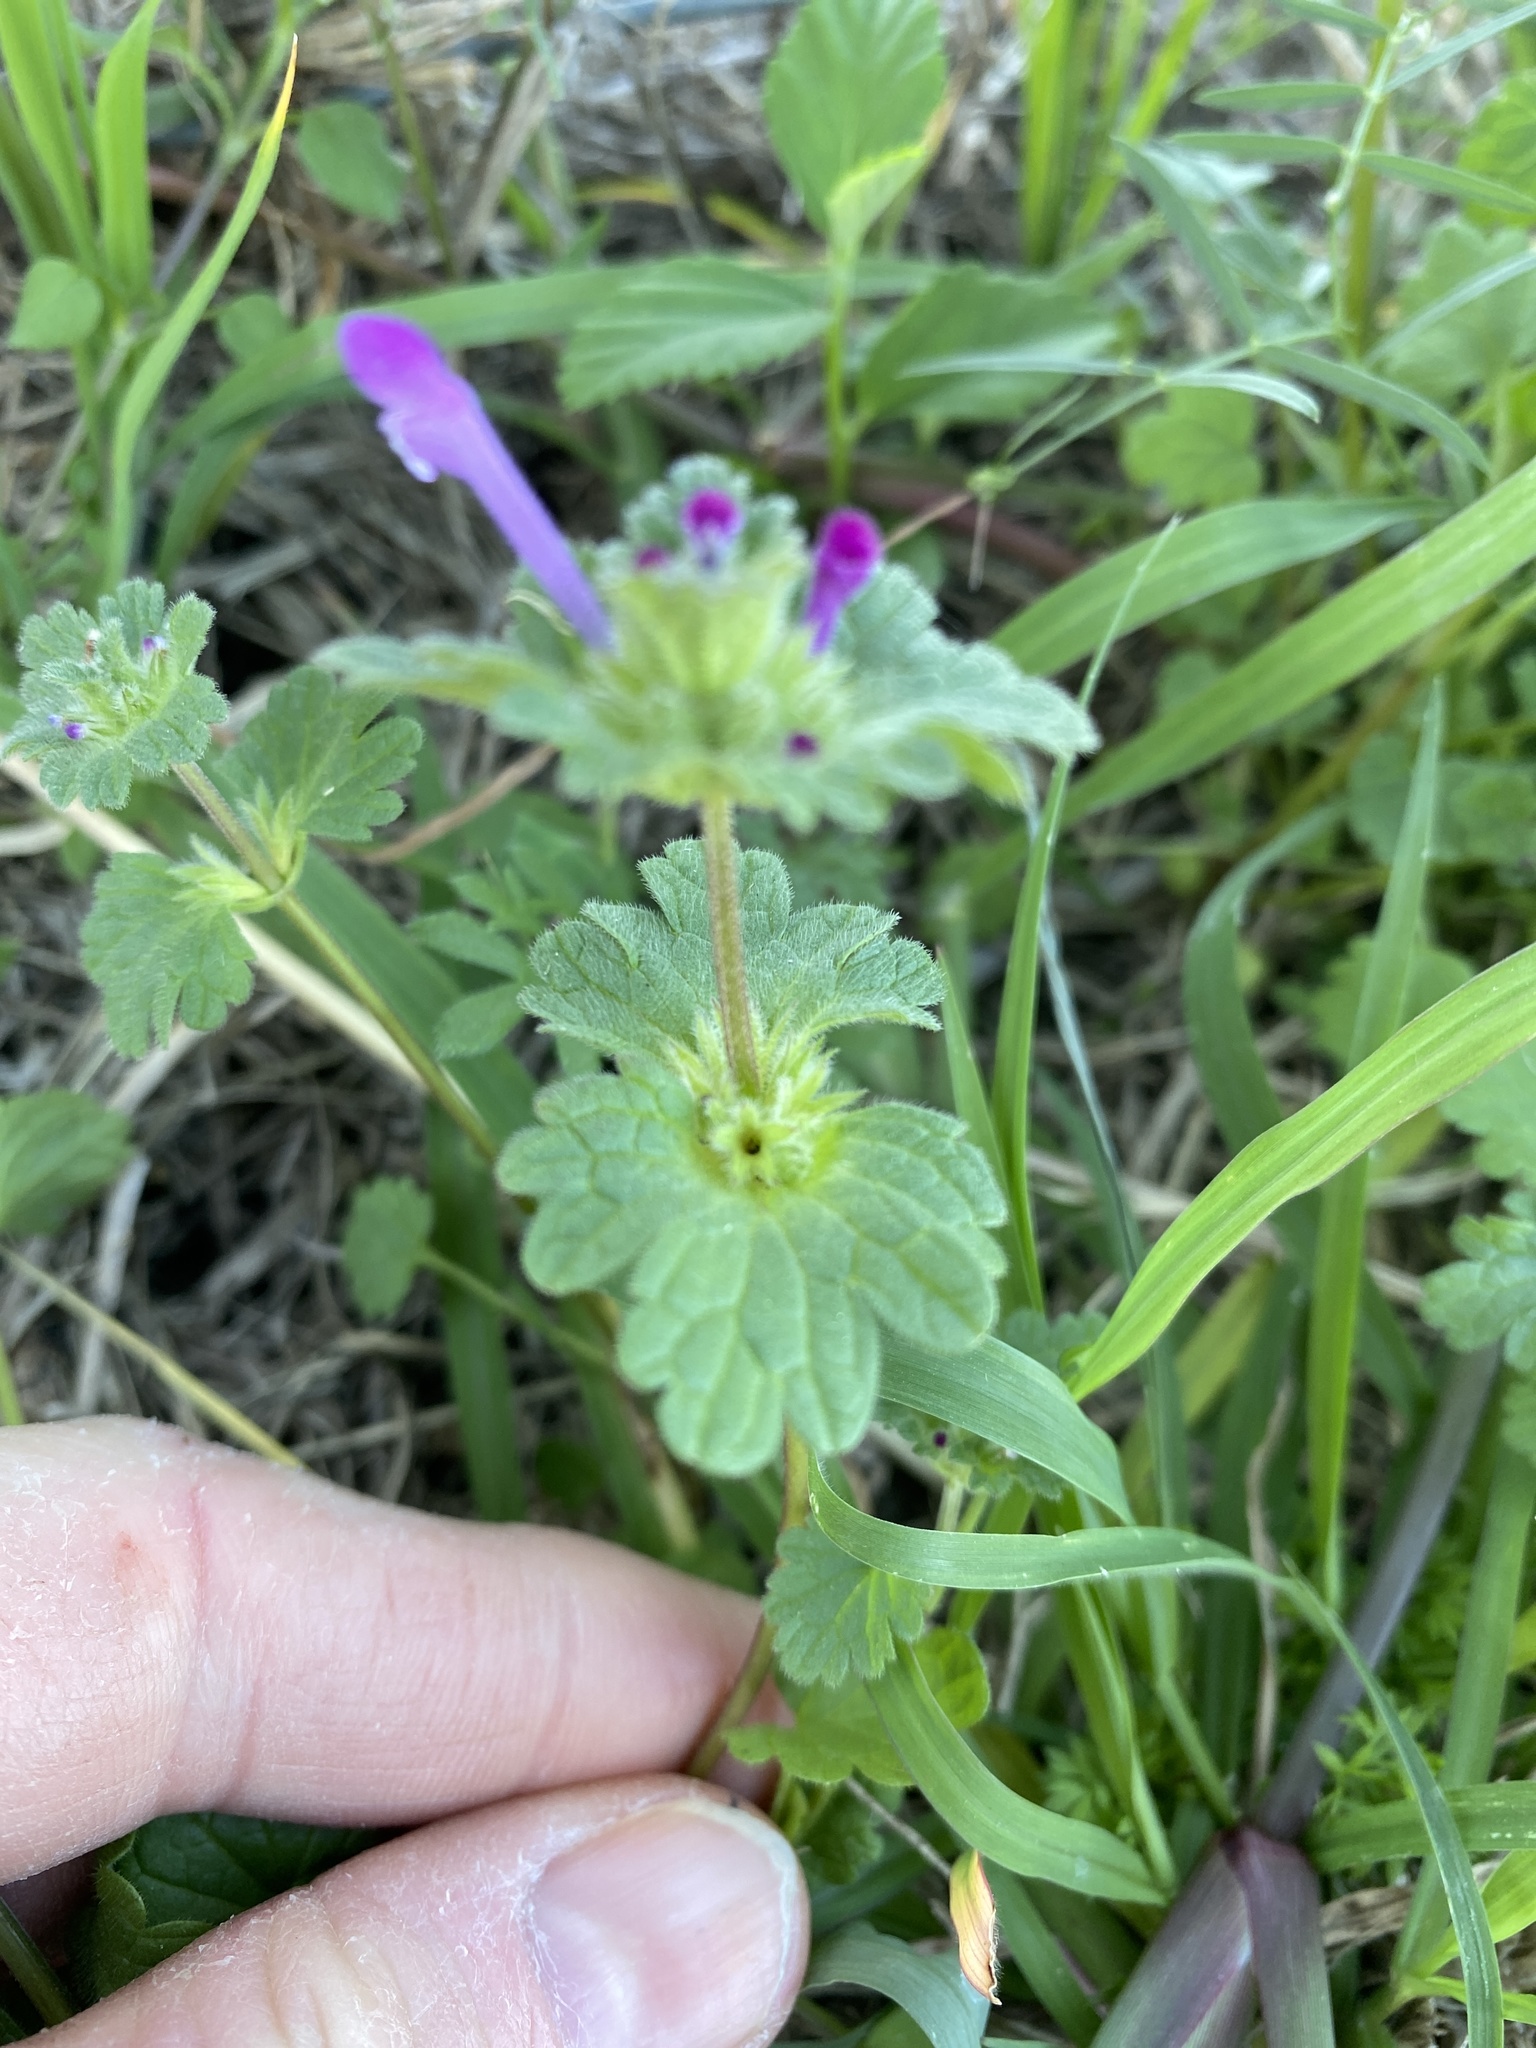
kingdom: Plantae
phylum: Tracheophyta
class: Magnoliopsida
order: Lamiales
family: Lamiaceae
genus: Lamium
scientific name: Lamium amplexicaule
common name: Henbit dead-nettle
